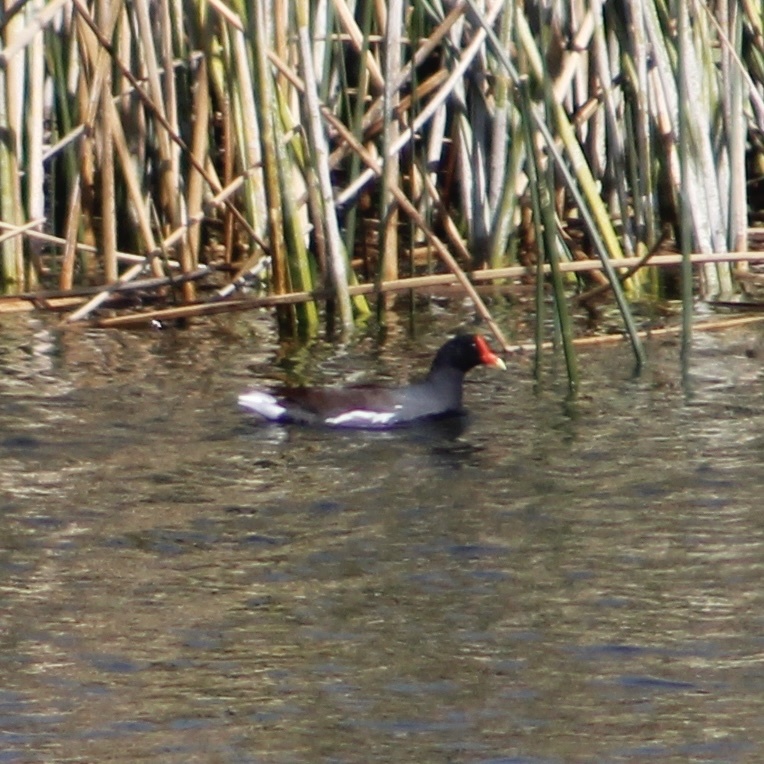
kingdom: Animalia
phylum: Chordata
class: Aves
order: Gruiformes
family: Rallidae
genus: Gallinula
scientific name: Gallinula chloropus
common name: Common moorhen
